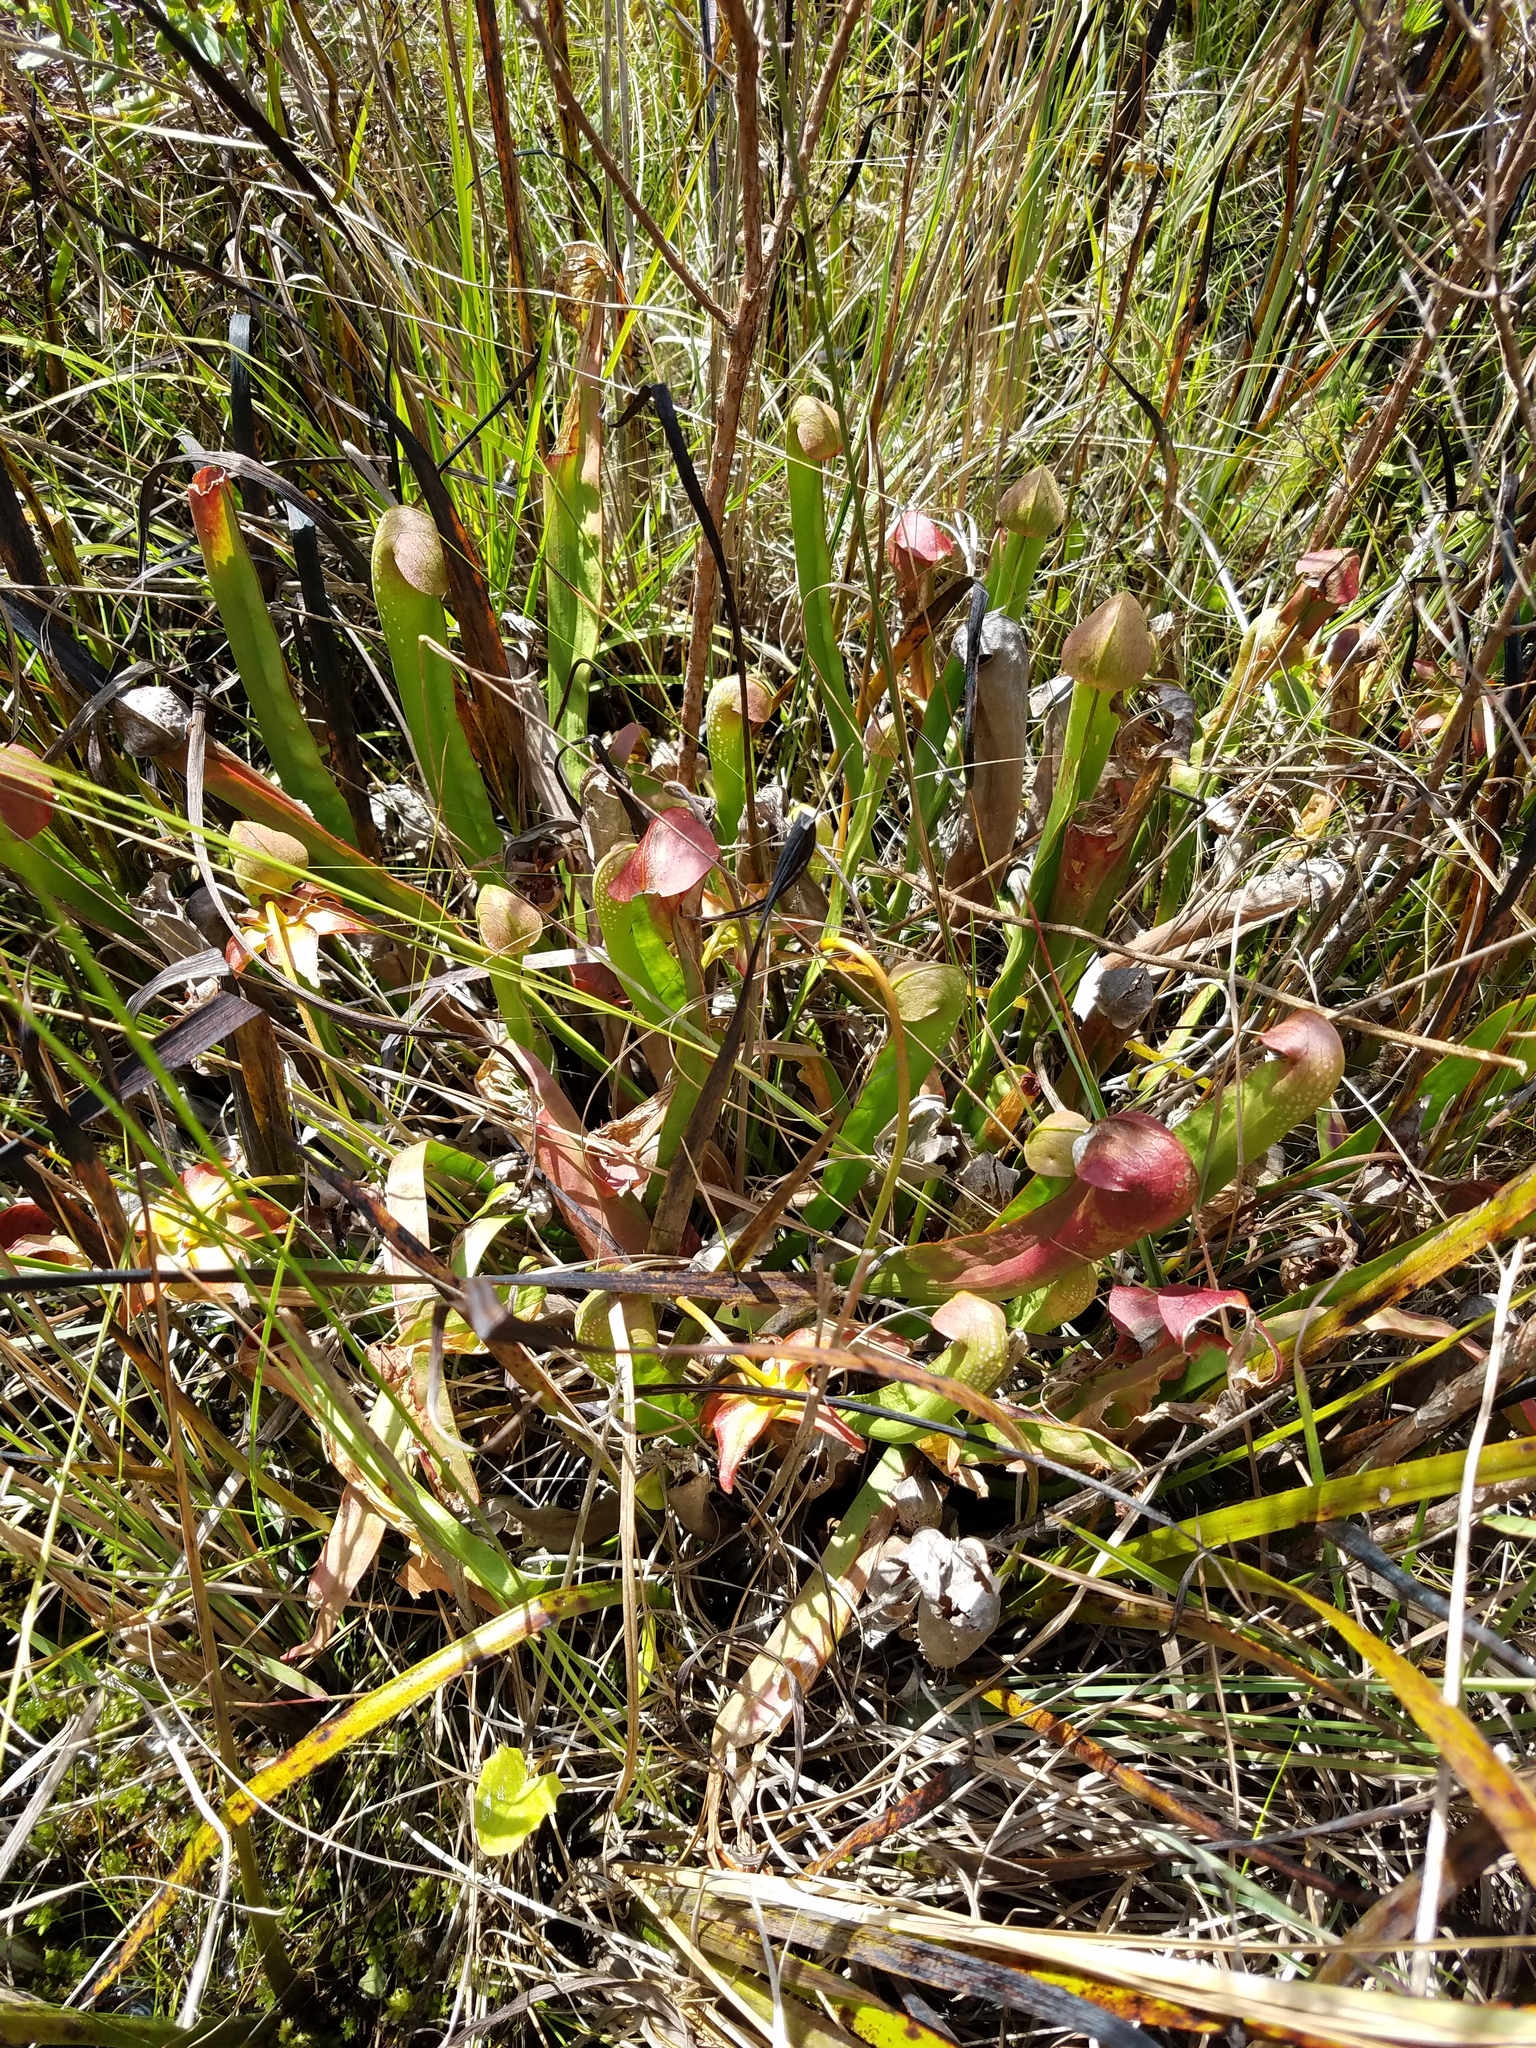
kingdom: Plantae
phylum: Tracheophyta
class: Magnoliopsida
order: Ericales
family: Sarraceniaceae
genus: Sarracenia
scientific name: Sarracenia minor
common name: Rainhat-trumpet
